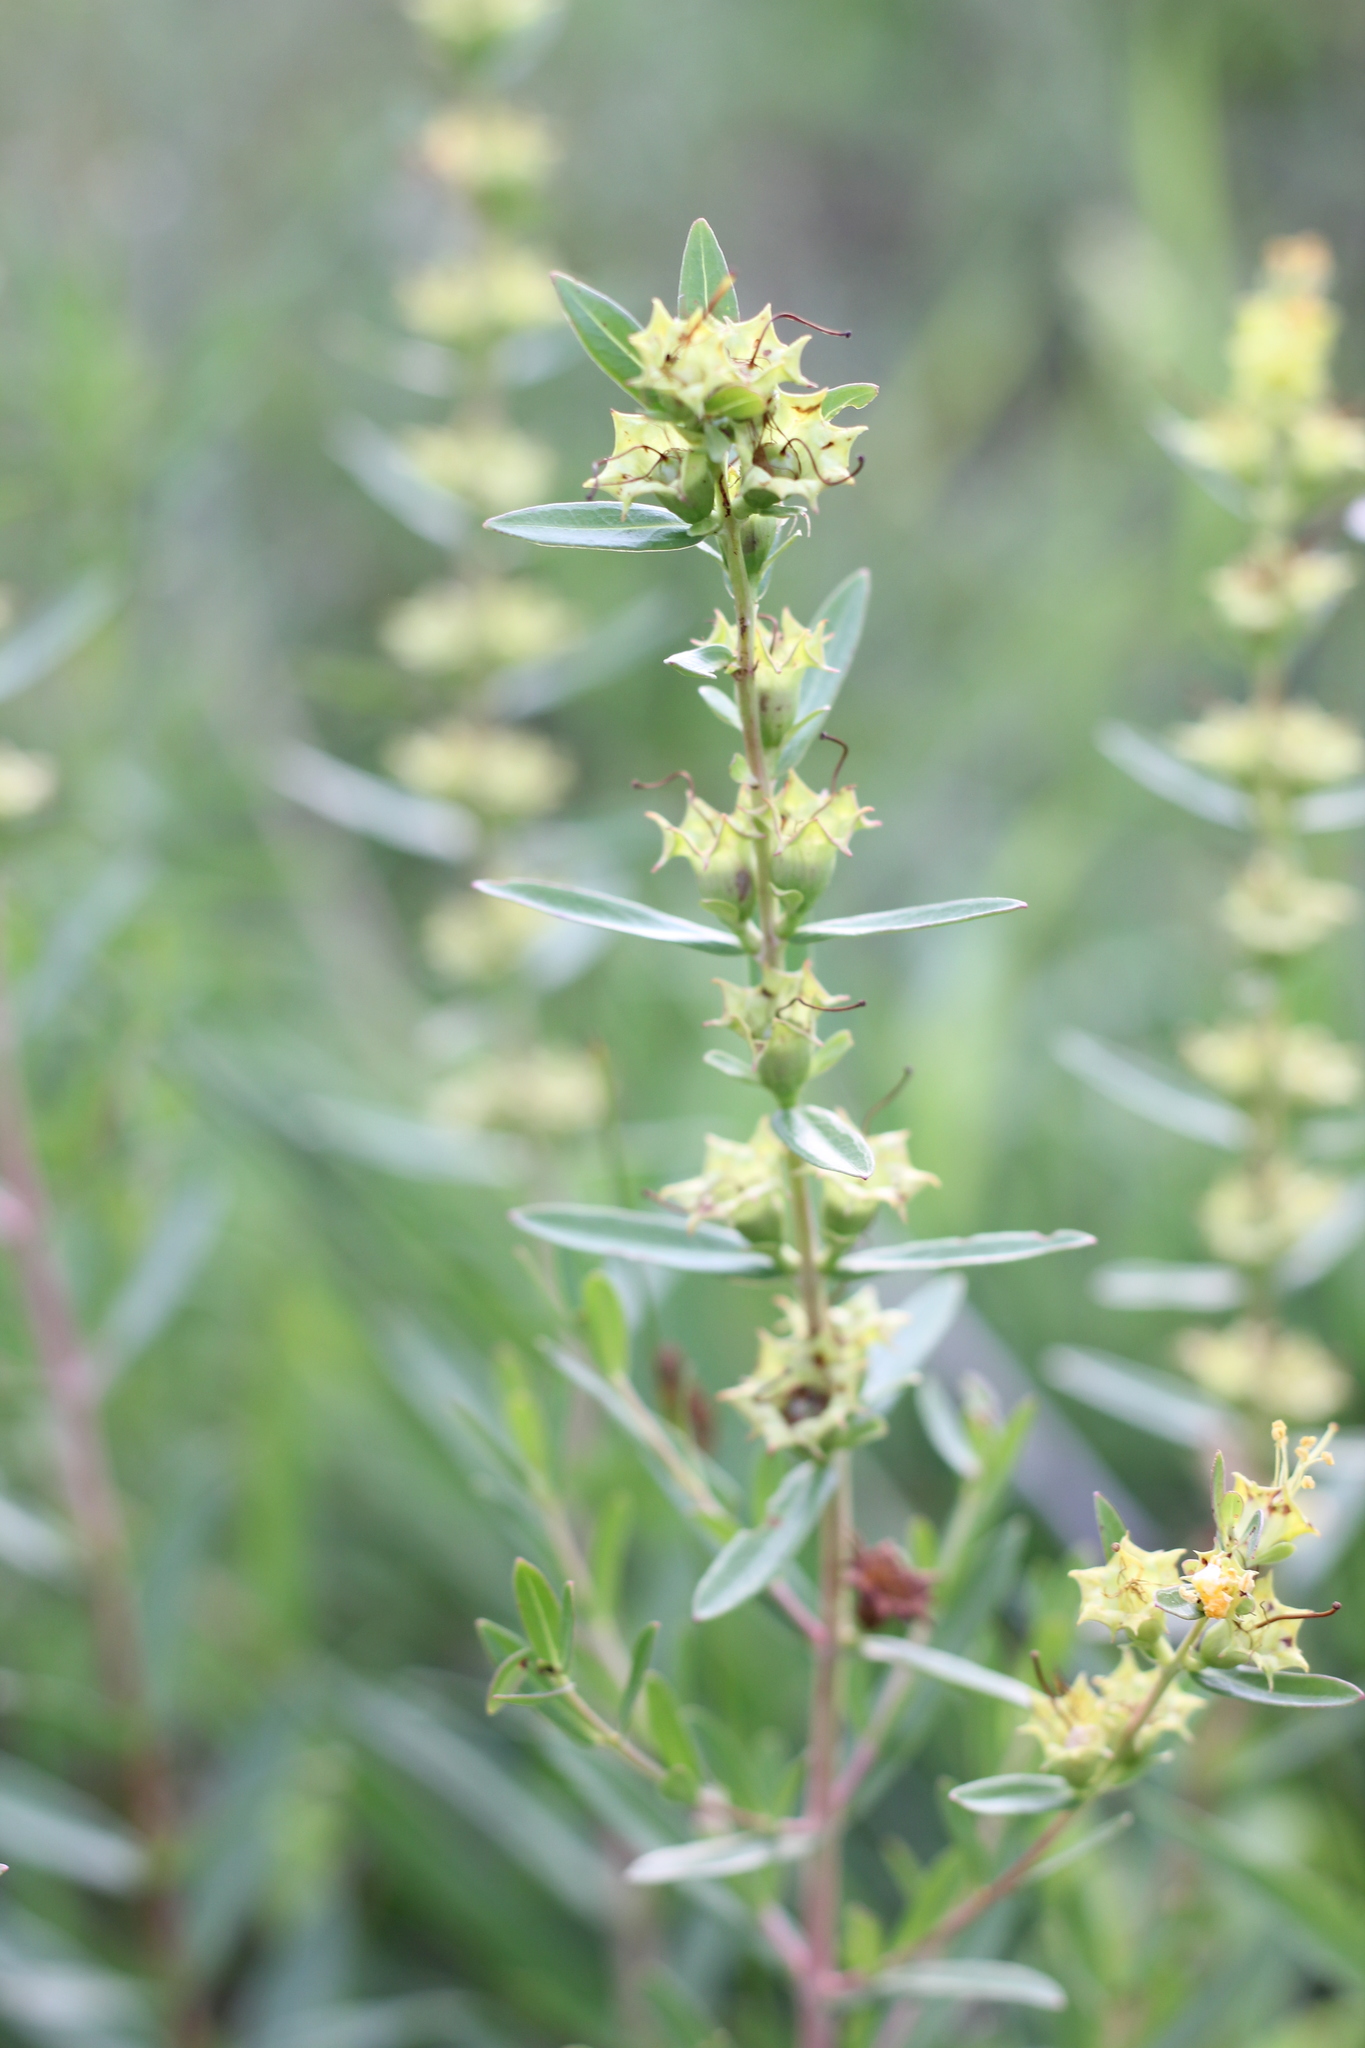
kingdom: Plantae
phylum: Tracheophyta
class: Magnoliopsida
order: Myrtales
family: Lythraceae
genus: Heimia
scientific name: Heimia salicifolia
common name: Willow-leaf heimia
